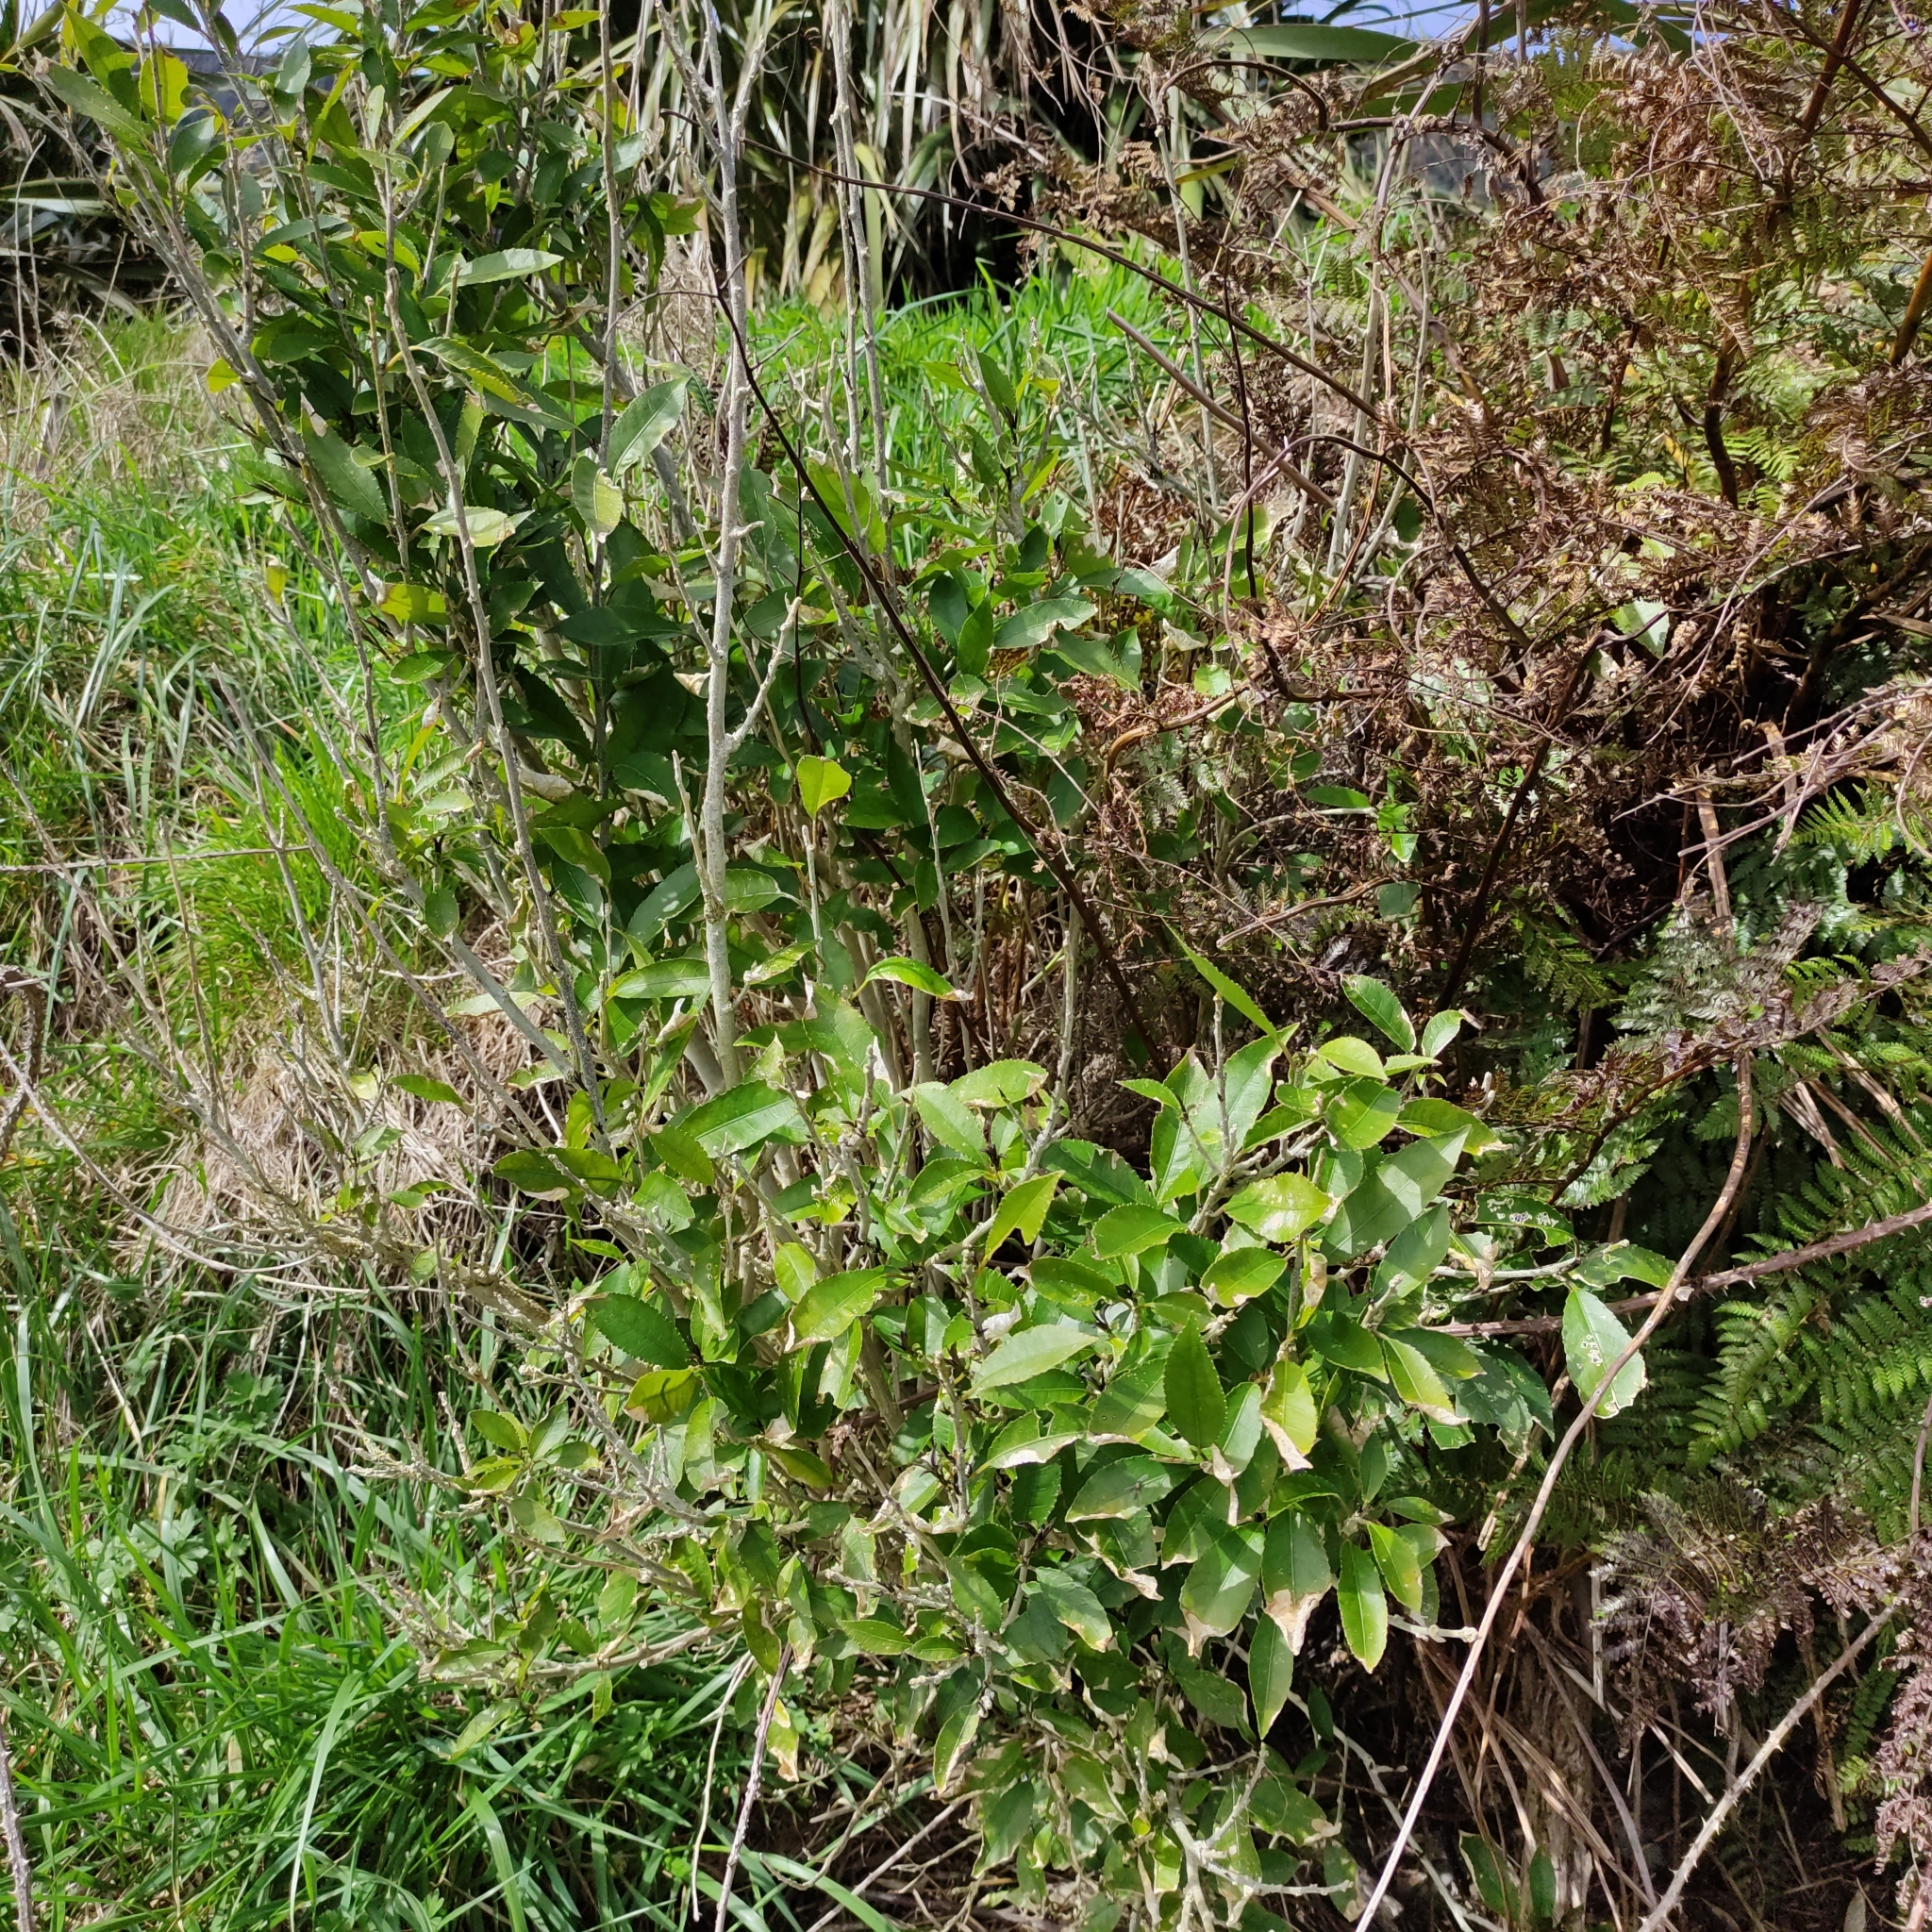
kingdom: Plantae
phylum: Tracheophyta
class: Magnoliopsida
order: Malpighiales
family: Violaceae
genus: Melicytus
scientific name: Melicytus ramiflorus
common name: Mahoe
